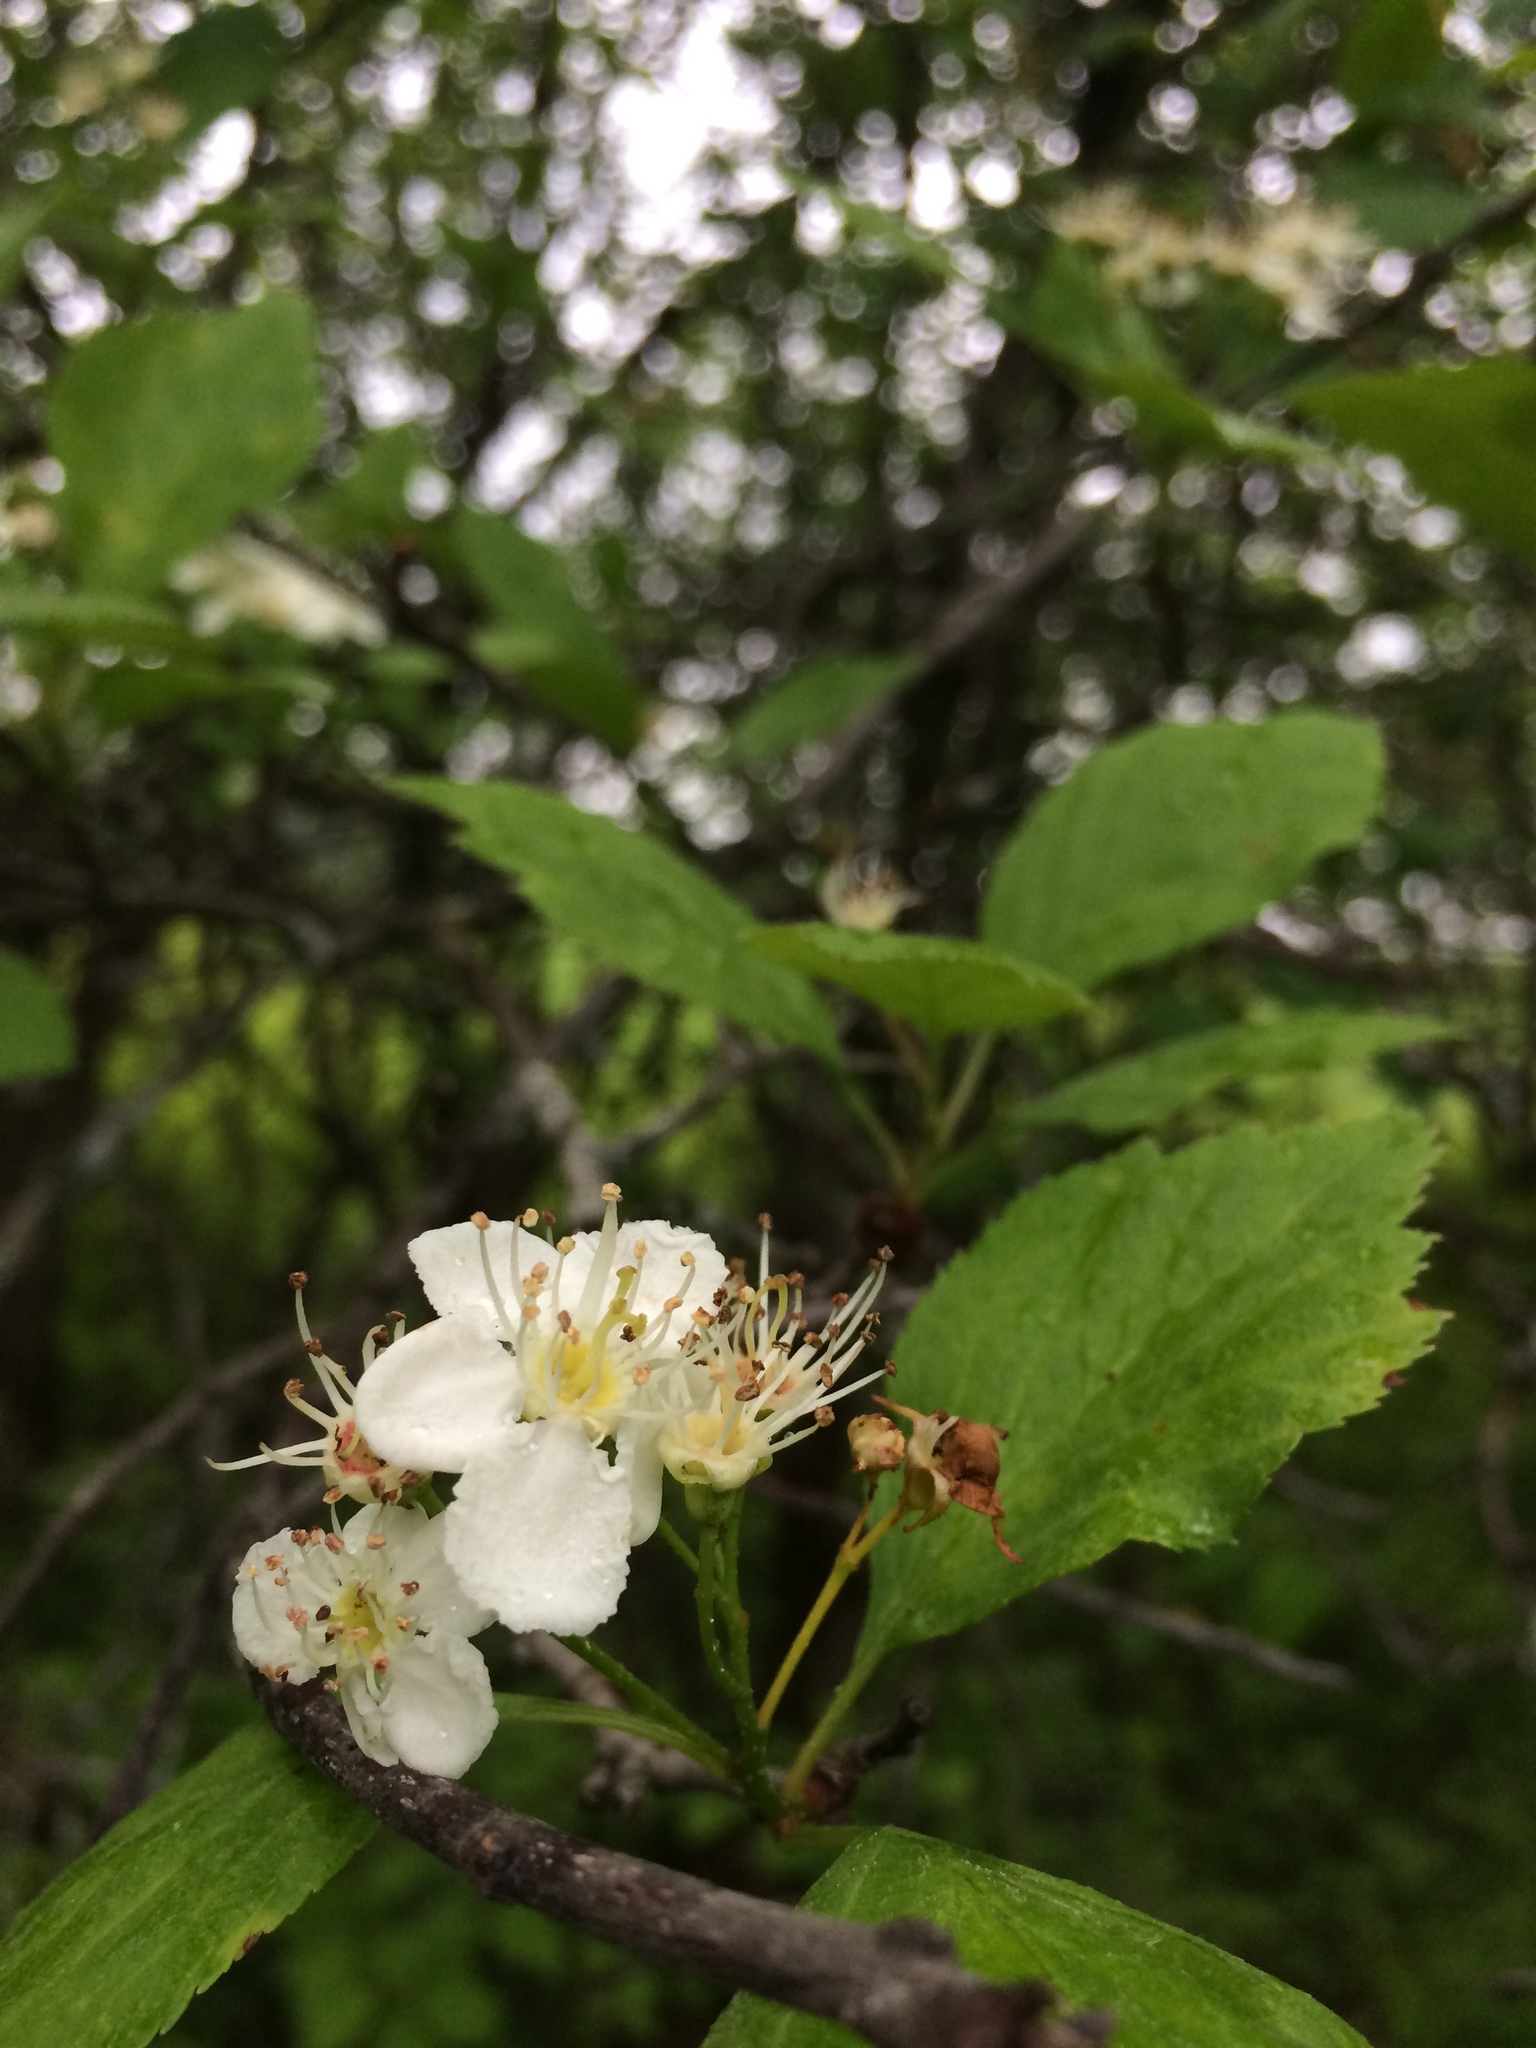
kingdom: Plantae
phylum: Tracheophyta
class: Magnoliopsida
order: Rosales
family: Rosaceae
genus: Crataegus
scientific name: Crataegus scabrida
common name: Rough hawthorn
